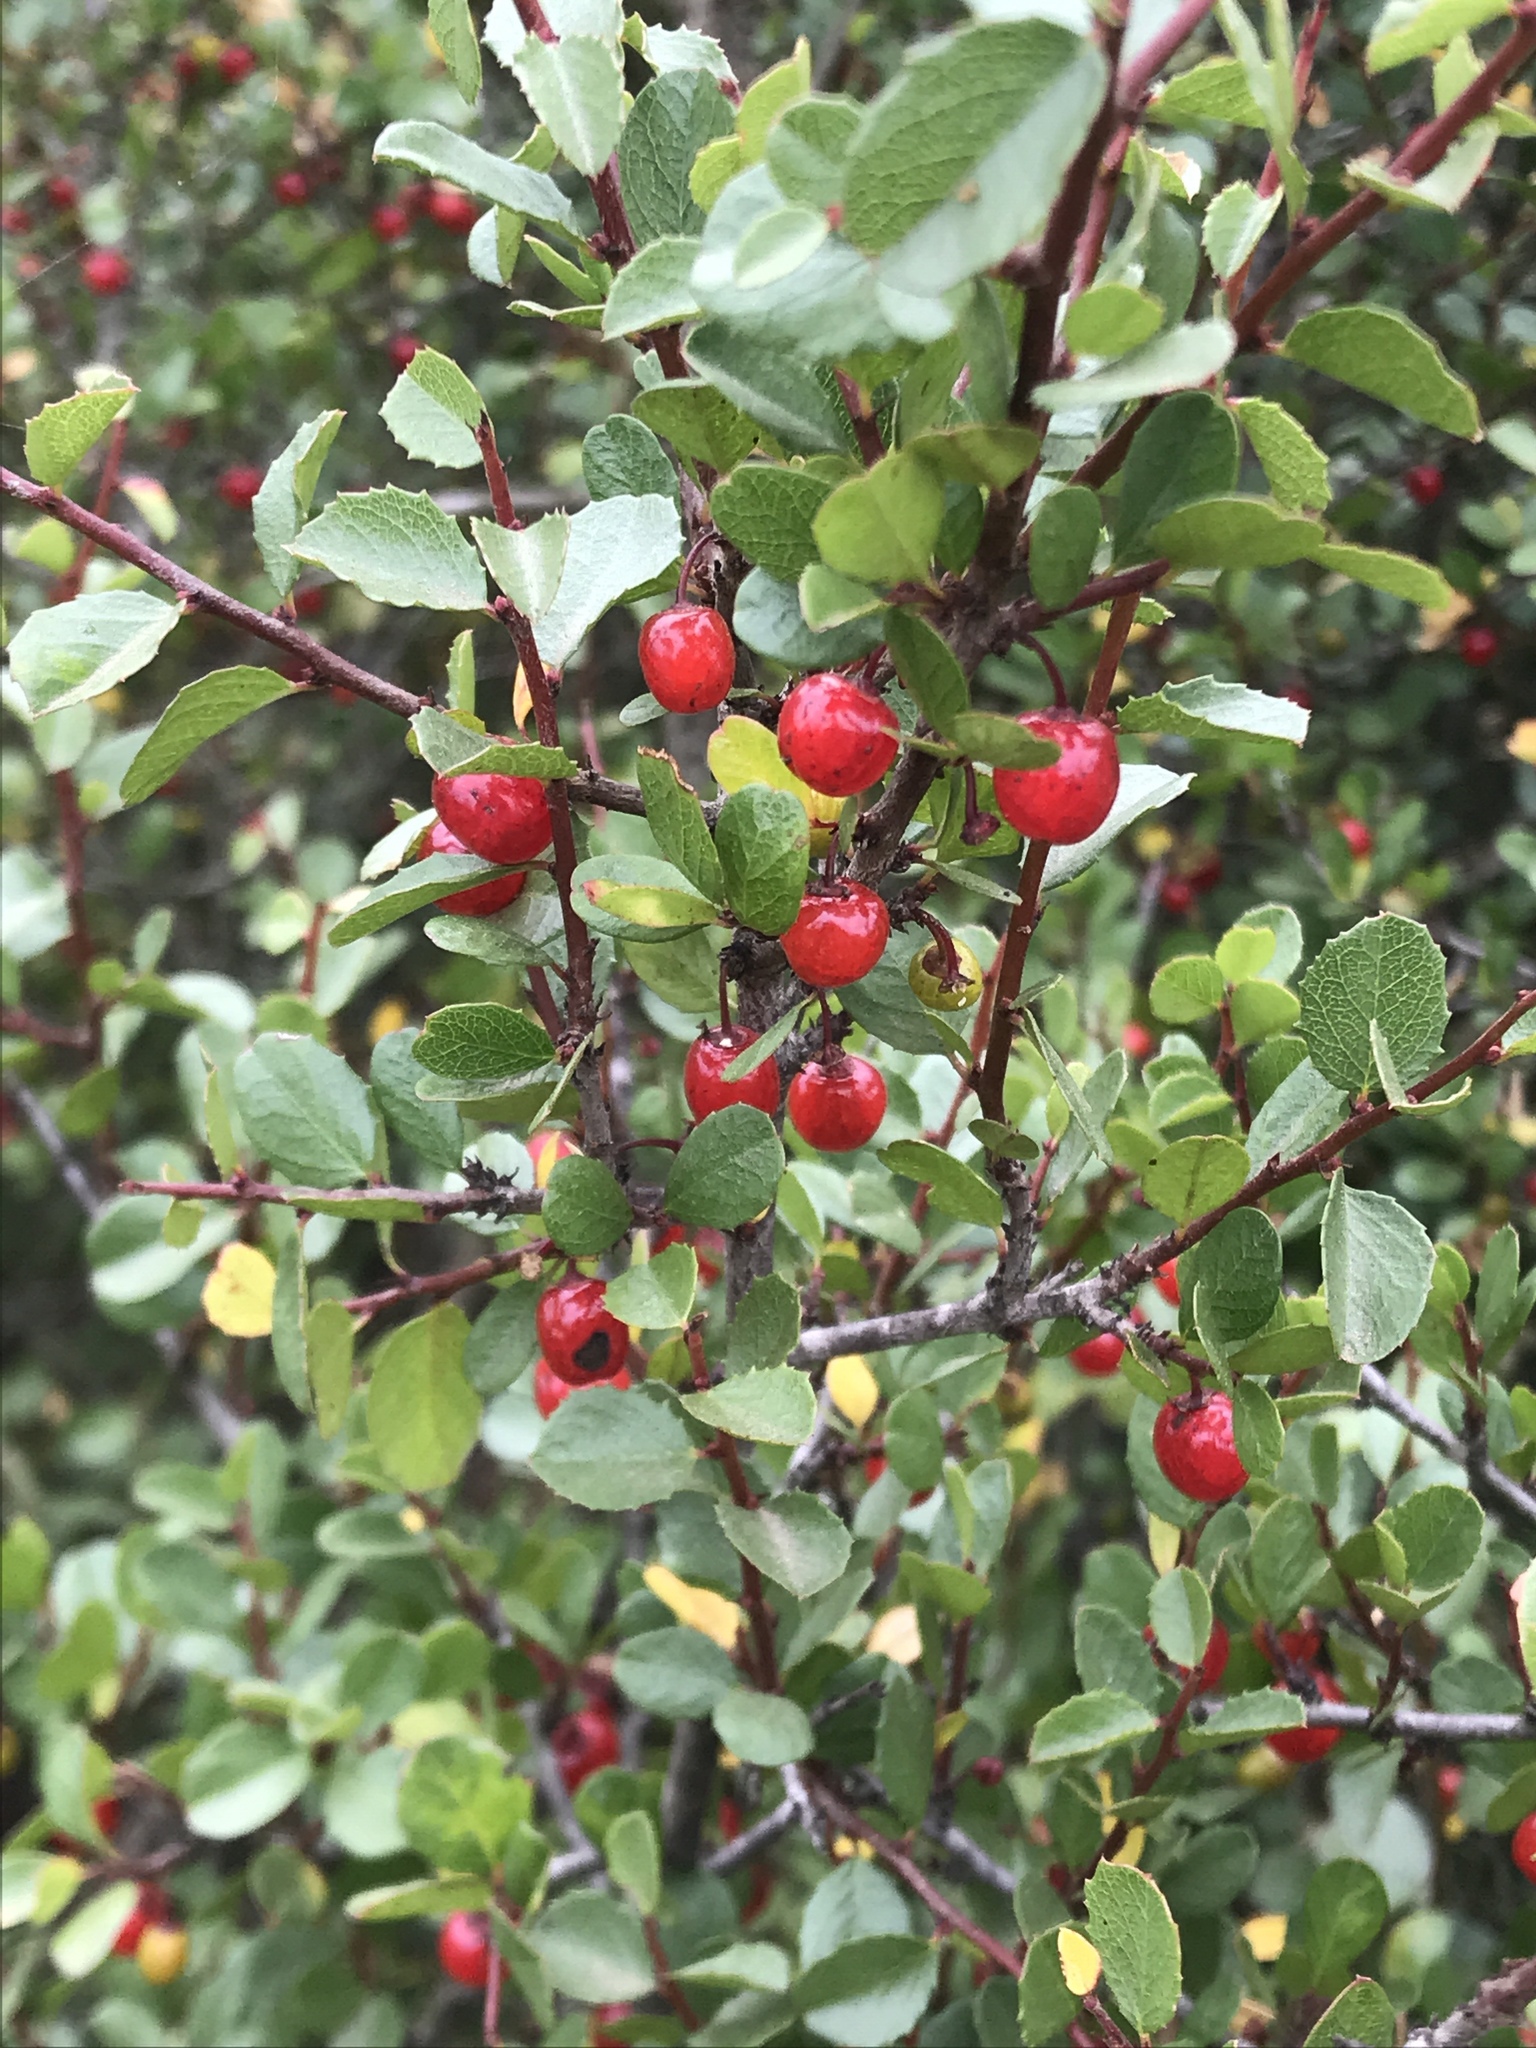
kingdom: Plantae
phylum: Tracheophyta
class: Magnoliopsida
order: Rosales
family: Rhamnaceae
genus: Endotropis
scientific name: Endotropis crocea
